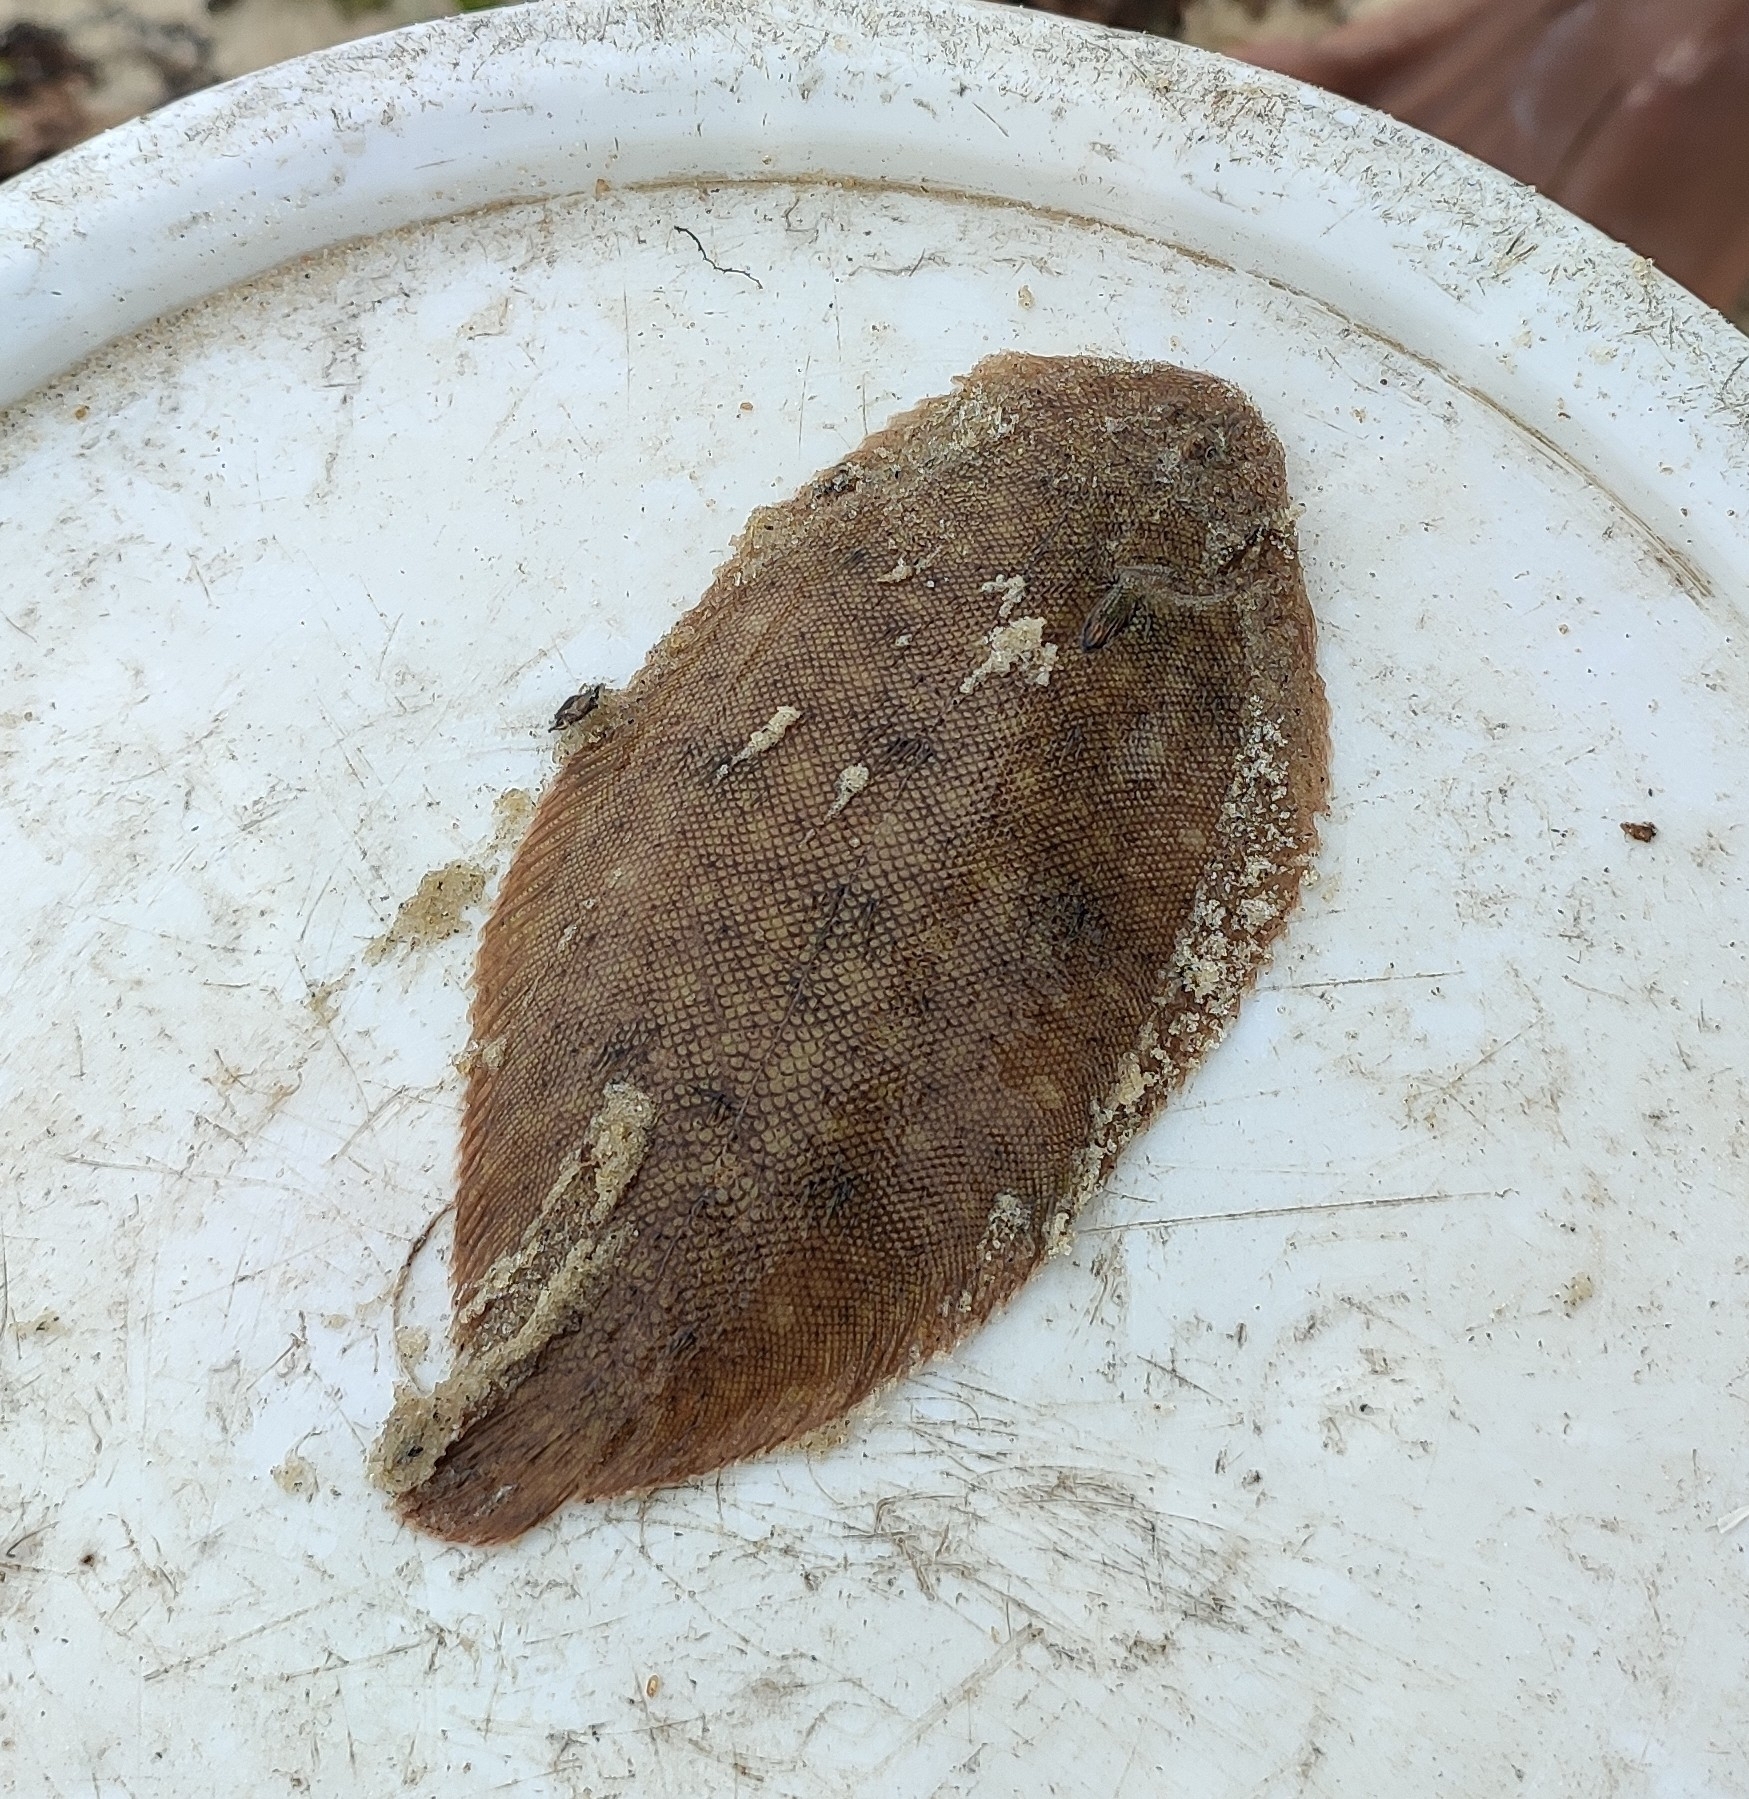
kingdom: Animalia
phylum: Chordata
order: Pleuronectiformes
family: Soleidae
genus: Brachirus
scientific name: Brachirus orientalis
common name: Oriental sole
